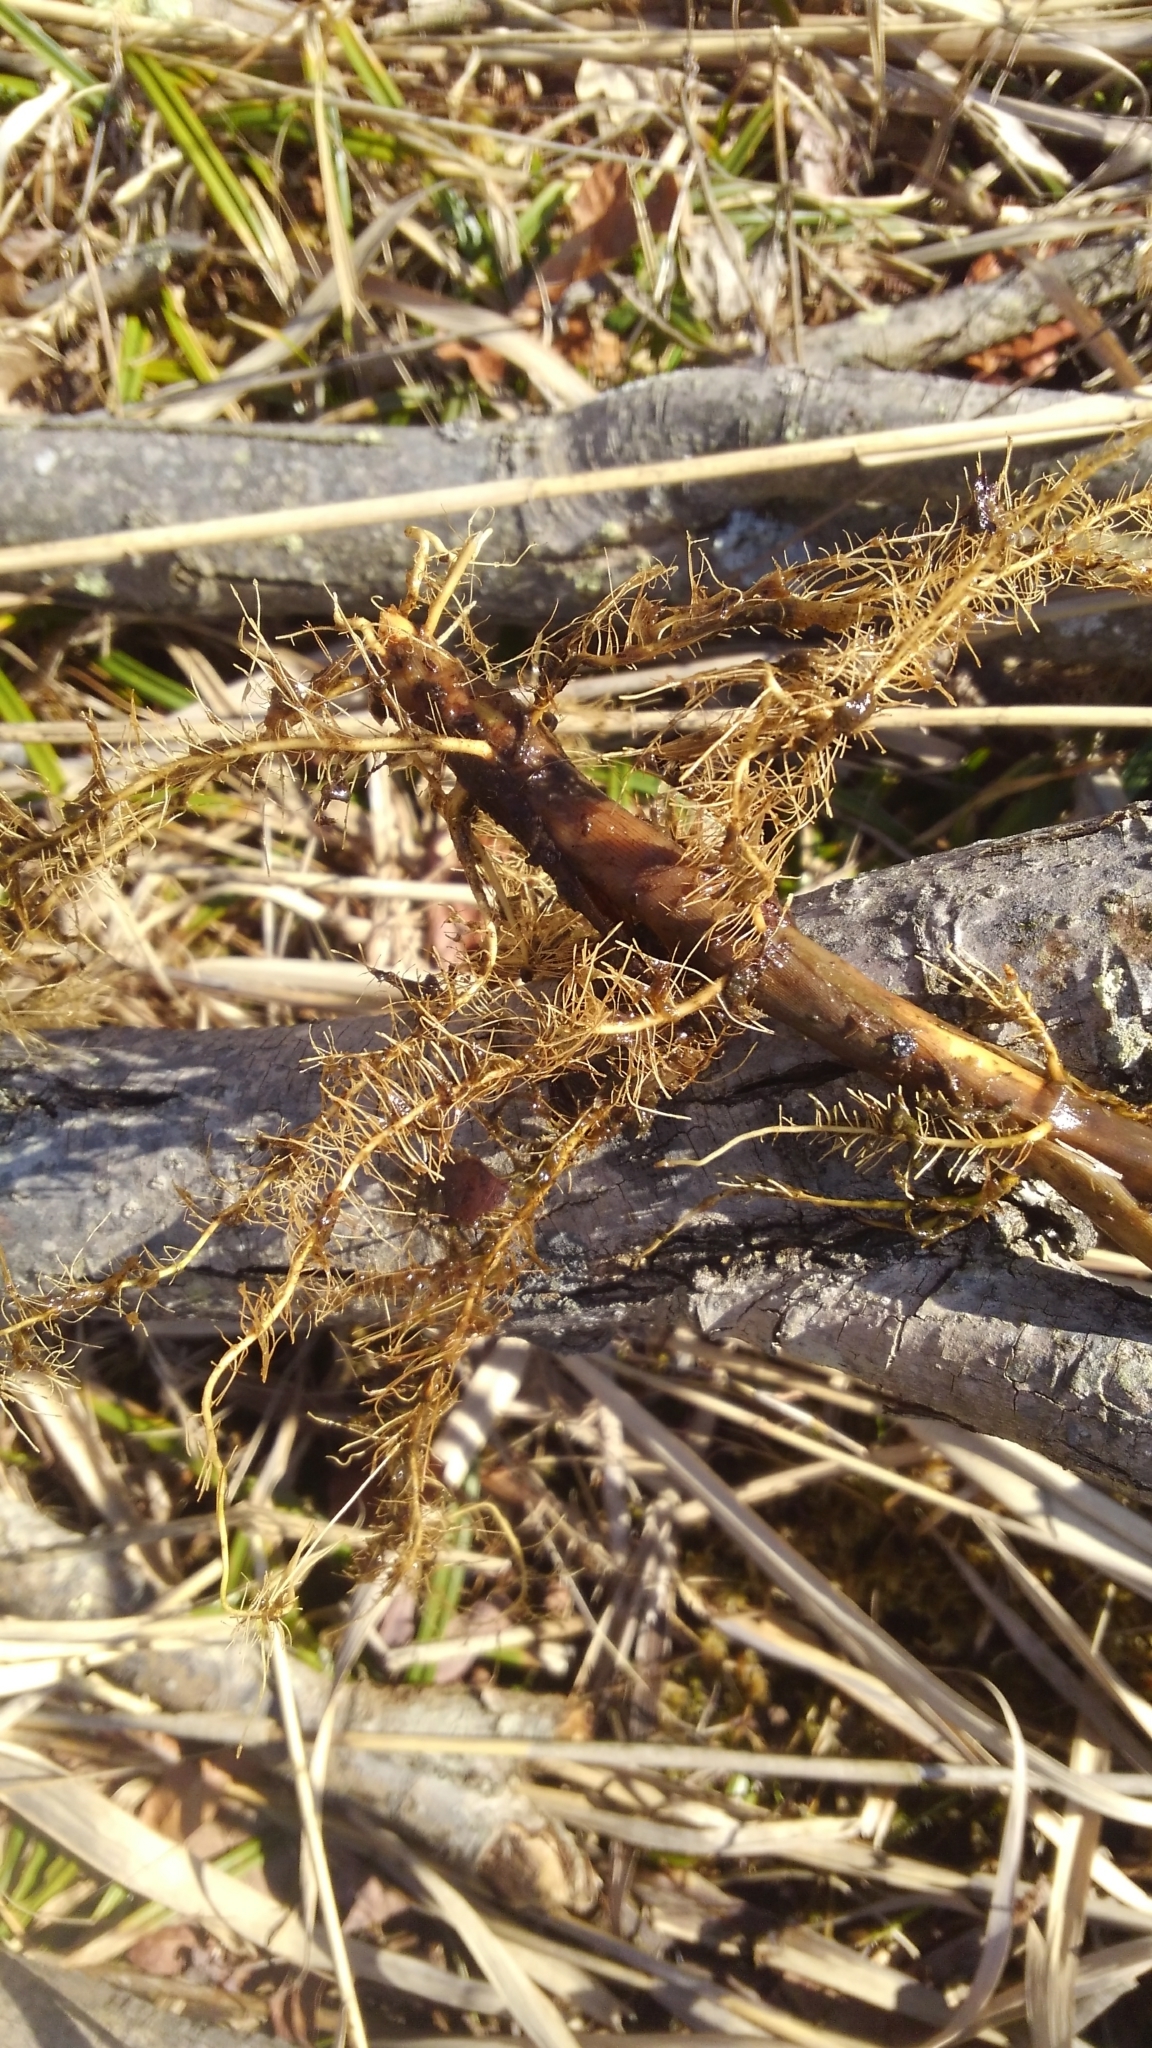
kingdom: Plantae
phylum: Tracheophyta
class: Liliopsida
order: Poales
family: Poaceae
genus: Phragmites
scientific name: Phragmites australis
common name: Common reed
